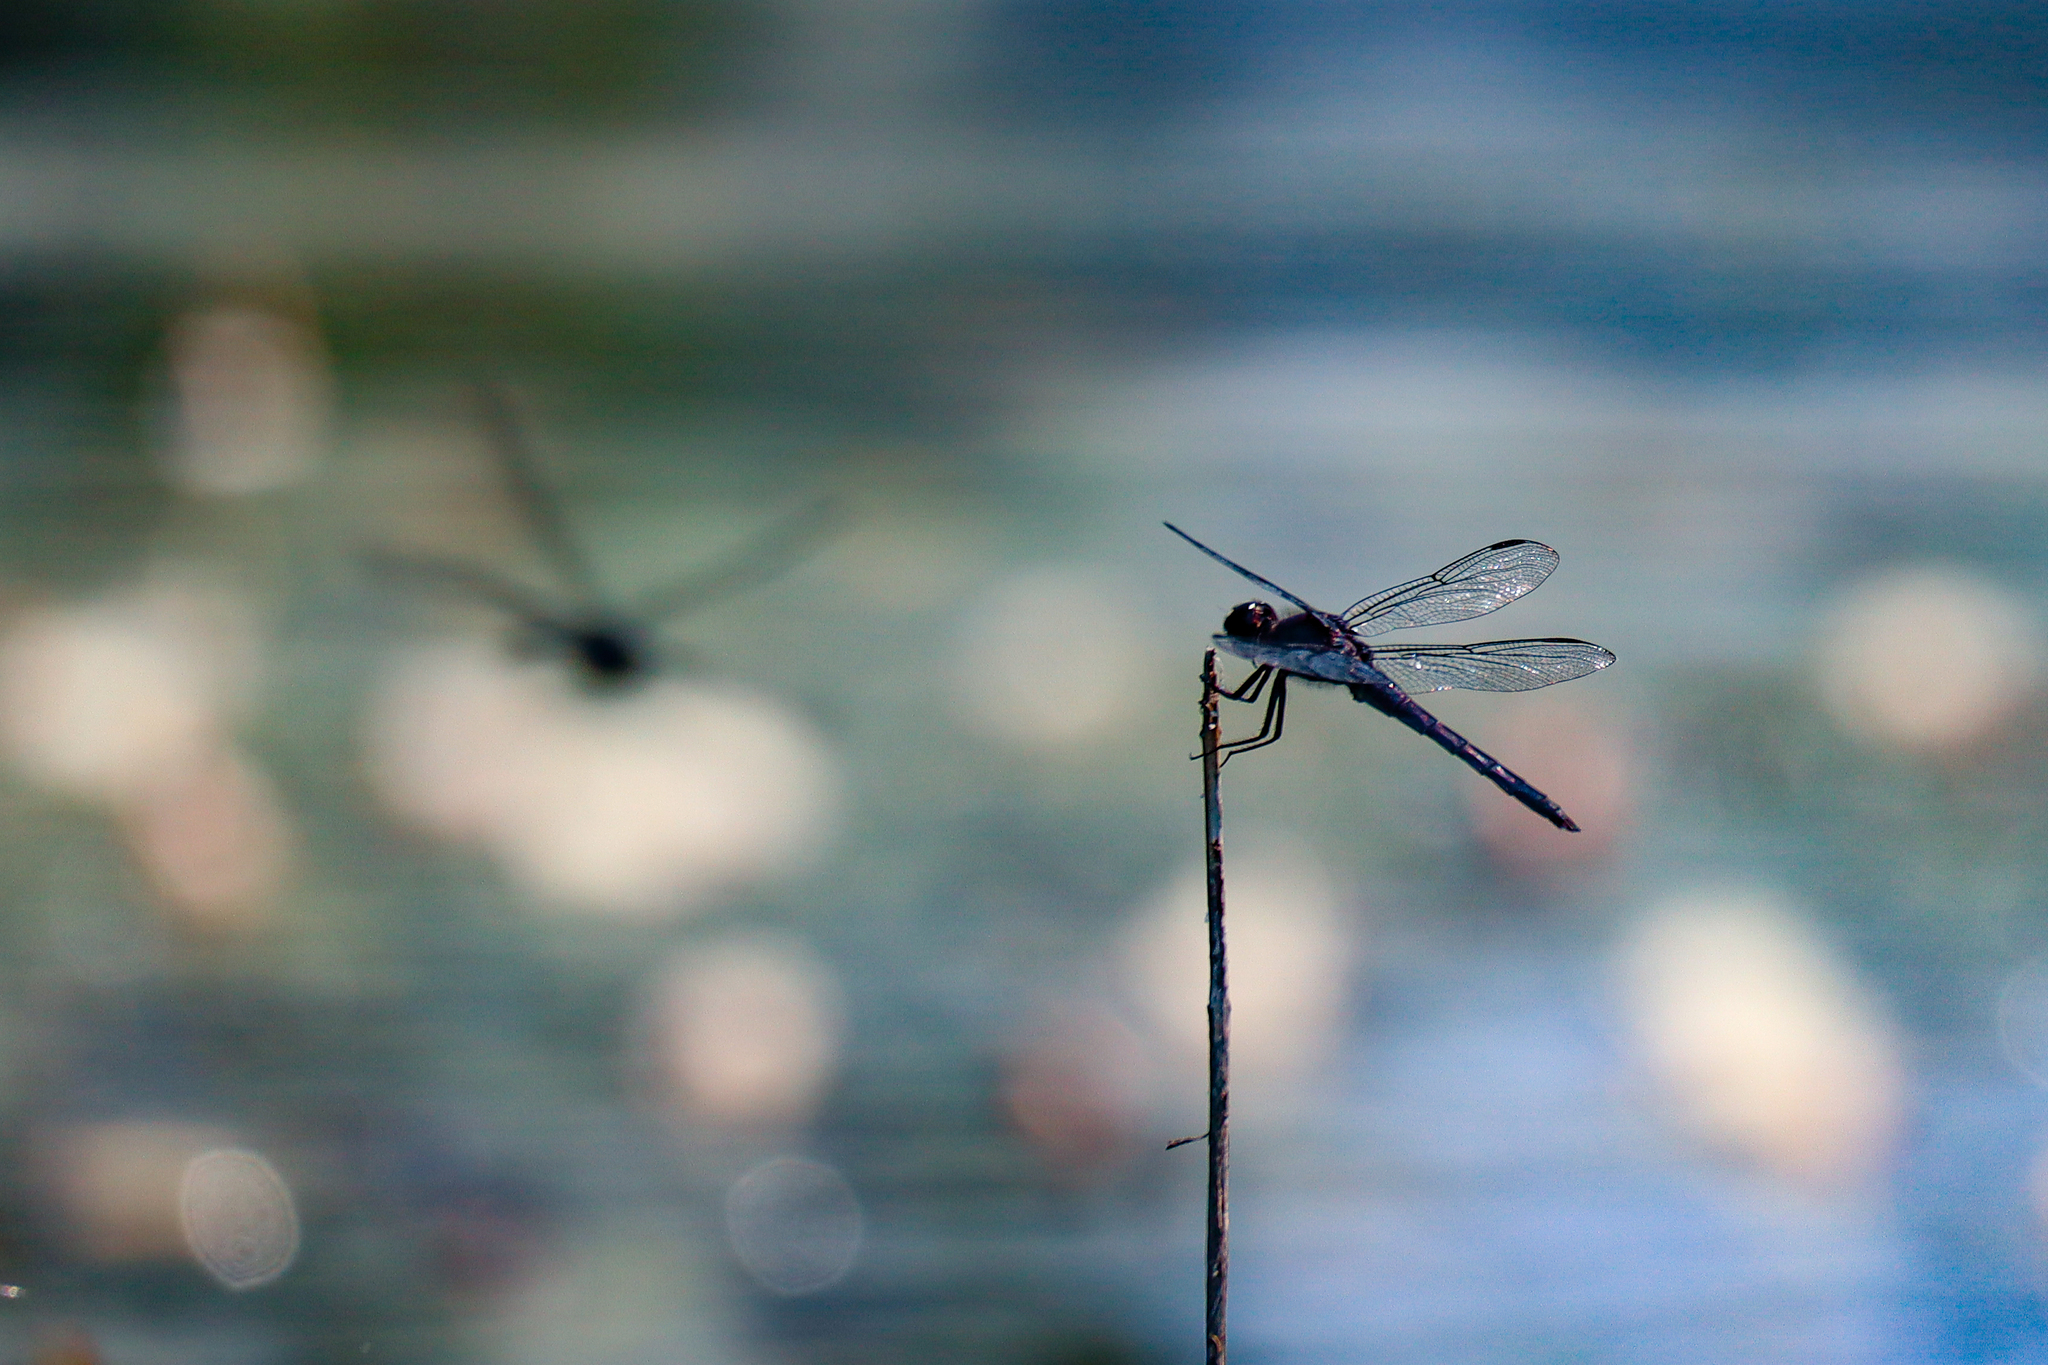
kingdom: Animalia
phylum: Arthropoda
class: Insecta
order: Odonata
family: Libellulidae
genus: Libellula
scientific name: Libellula incesta
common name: Slaty skimmer
